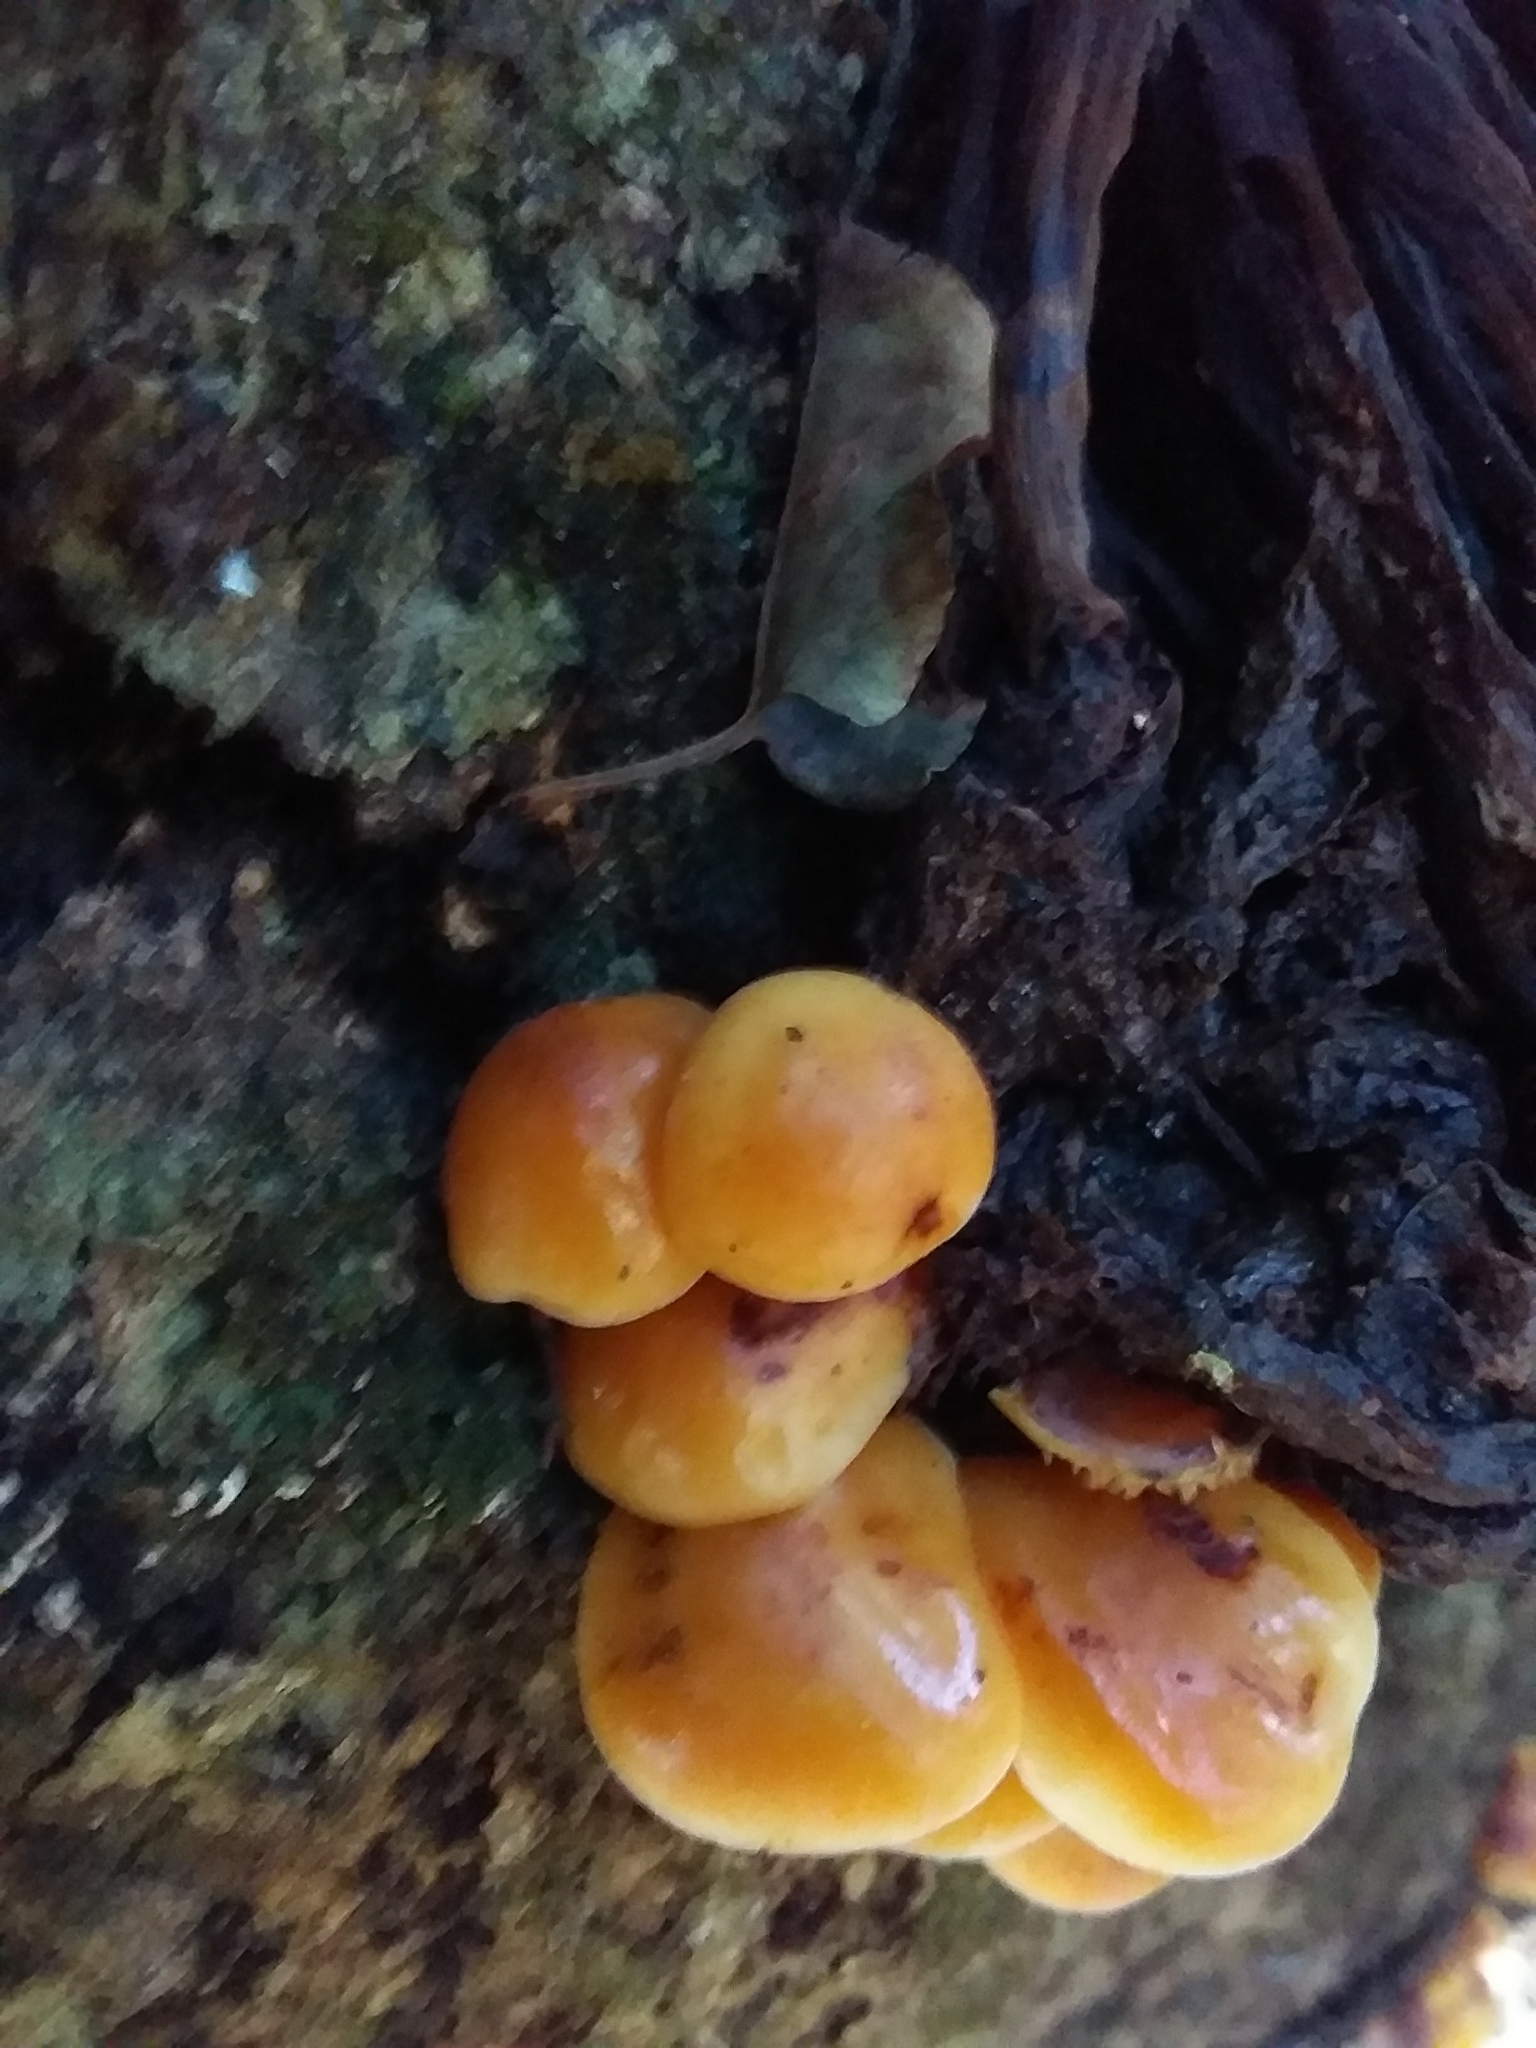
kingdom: Fungi
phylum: Basidiomycota
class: Agaricomycetes
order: Agaricales
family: Physalacriaceae
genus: Flammulina
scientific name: Flammulina velutipes
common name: Velvet shank
